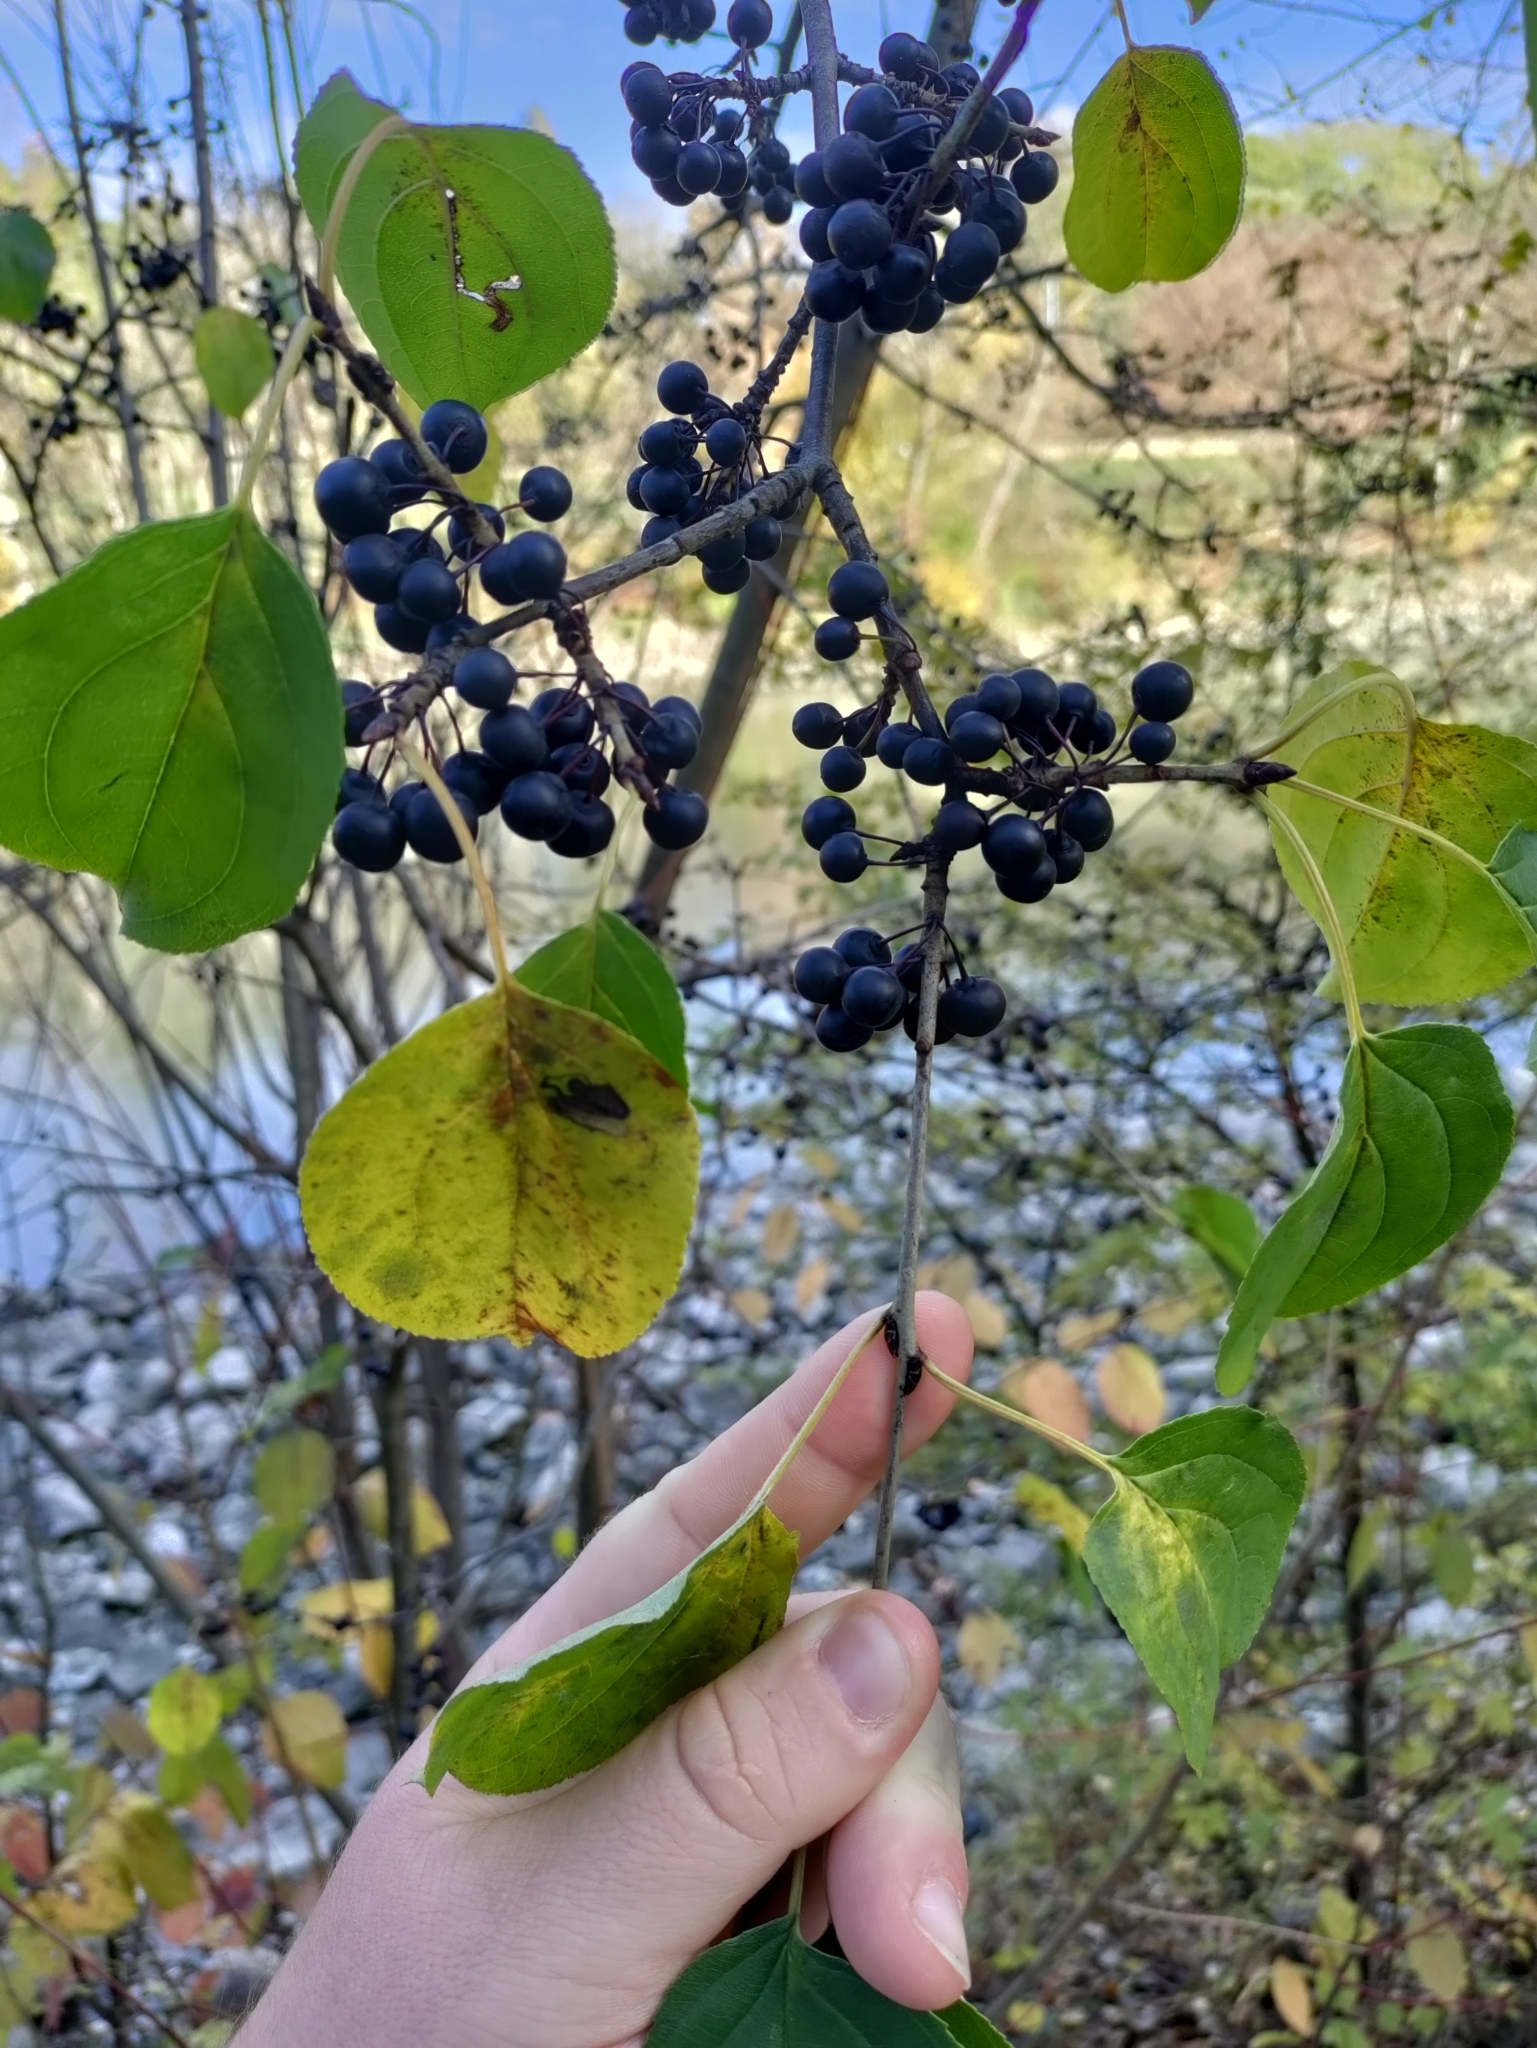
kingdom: Plantae
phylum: Tracheophyta
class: Magnoliopsida
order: Rosales
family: Rhamnaceae
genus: Rhamnus
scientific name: Rhamnus cathartica
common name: Common buckthorn
